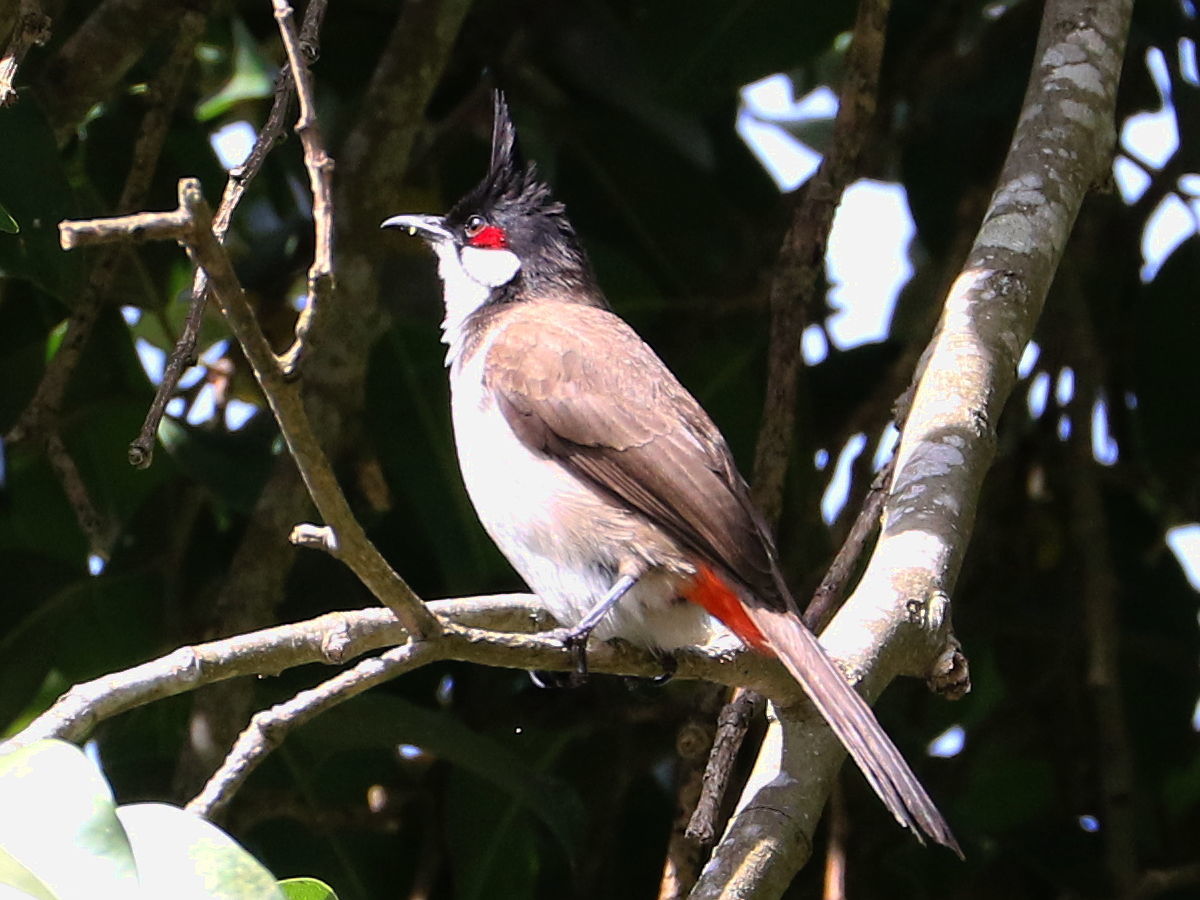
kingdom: Animalia
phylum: Chordata
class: Aves
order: Passeriformes
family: Pycnonotidae
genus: Pycnonotus
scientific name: Pycnonotus jocosus
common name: Red-whiskered bulbul
